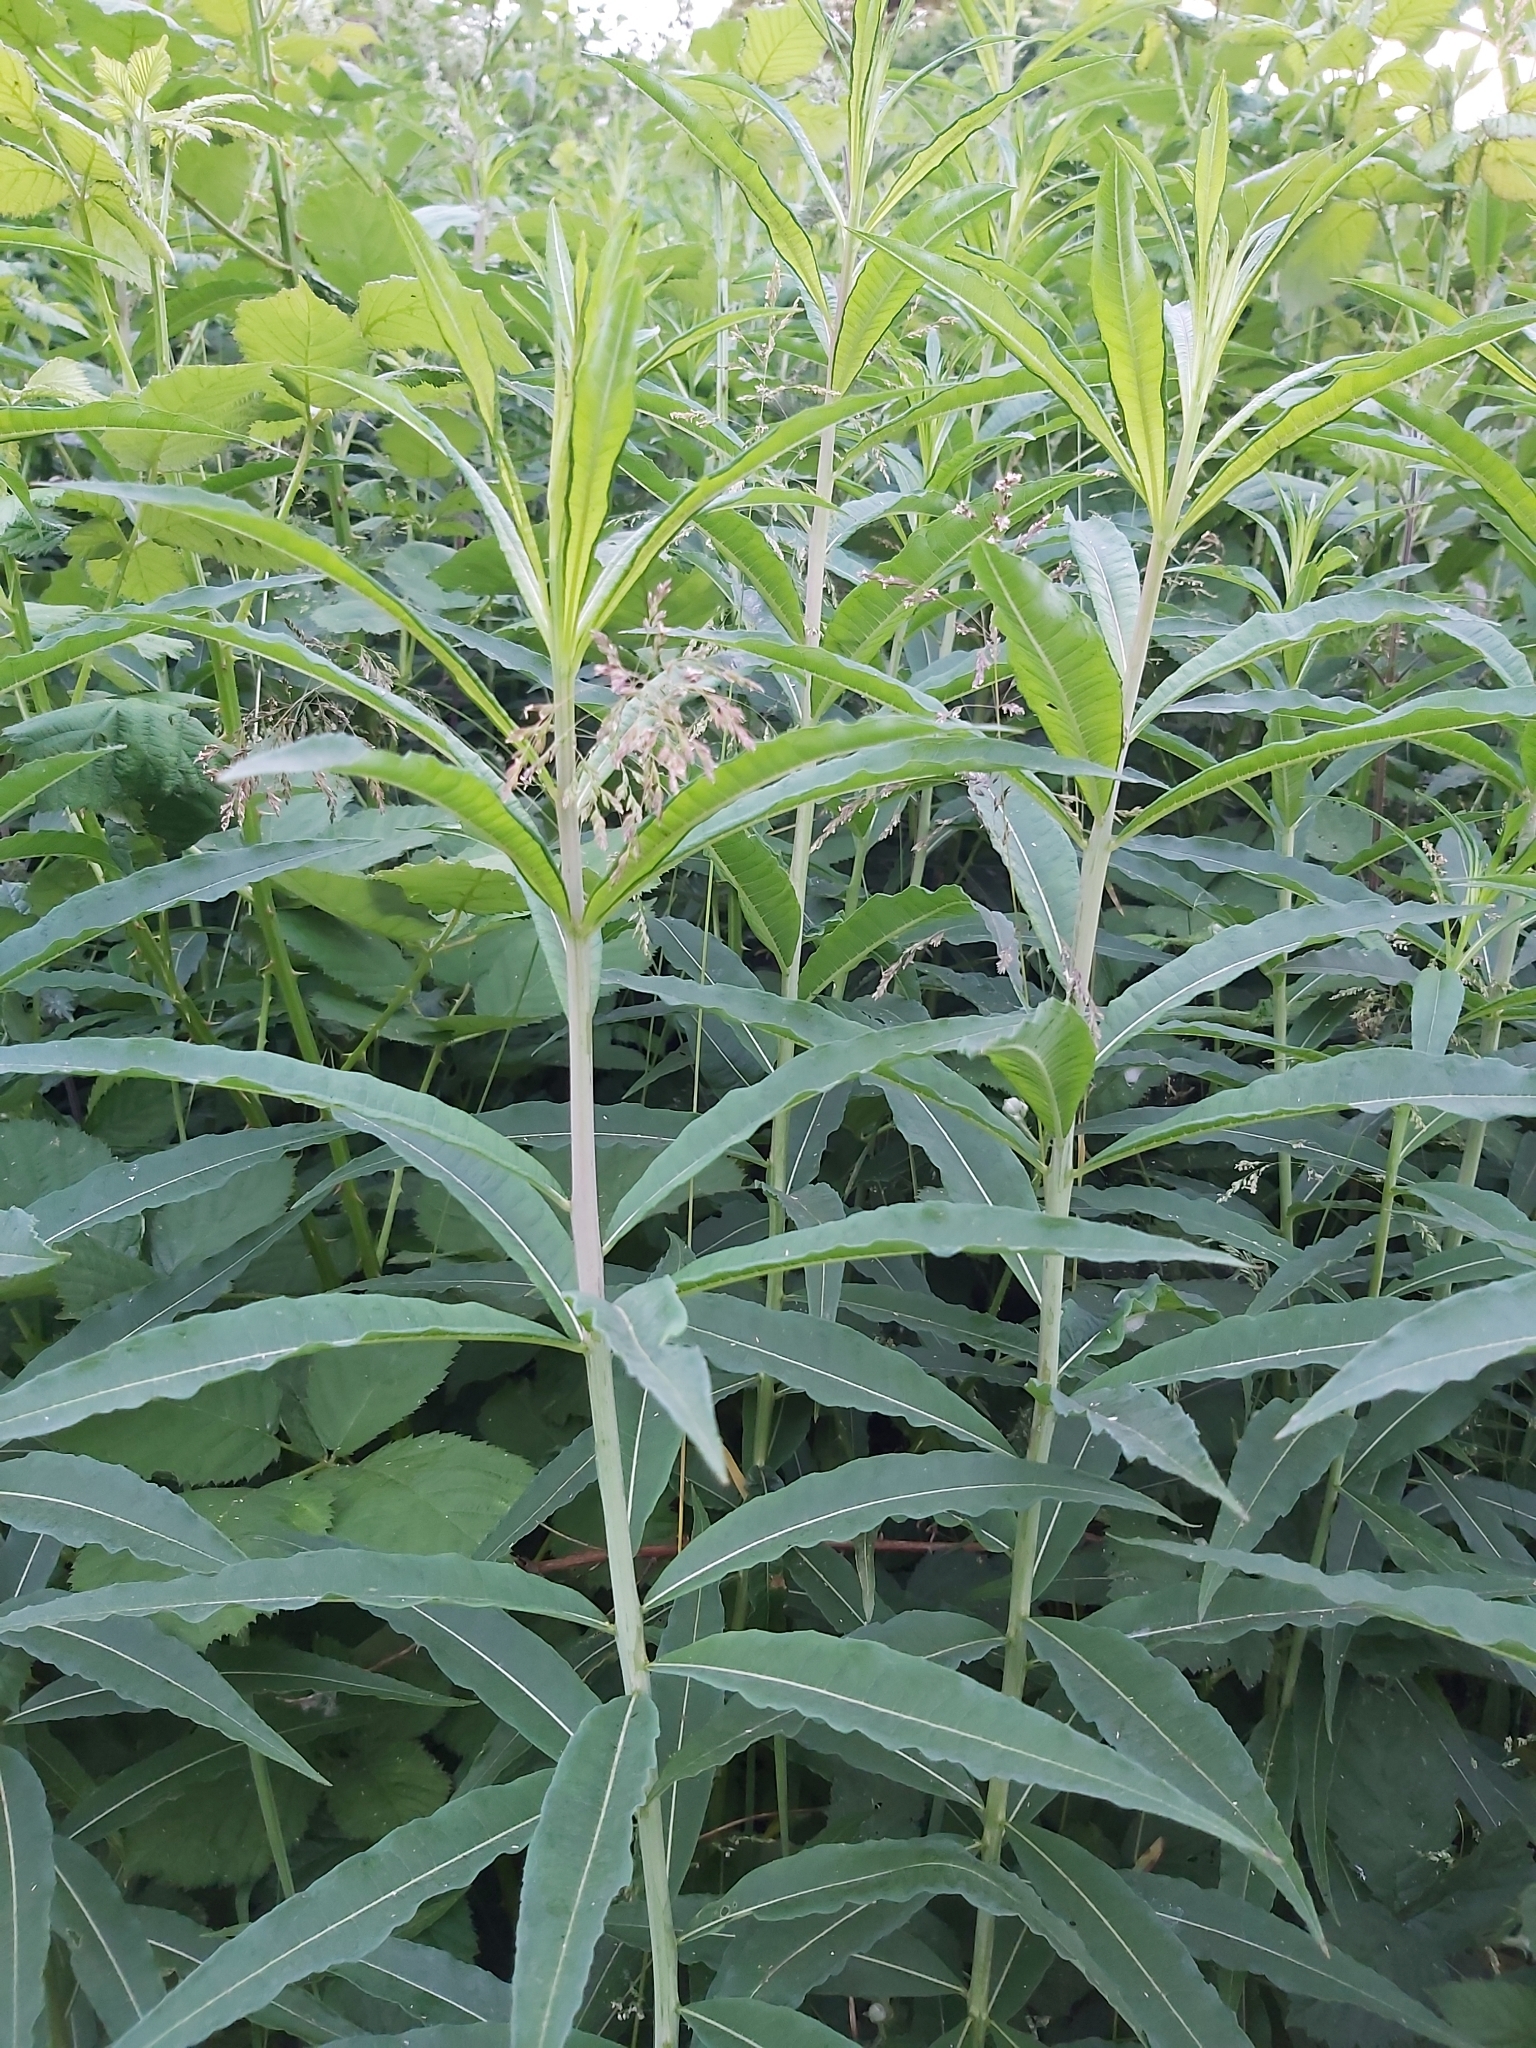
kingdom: Plantae
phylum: Tracheophyta
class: Magnoliopsida
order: Myrtales
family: Onagraceae
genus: Chamaenerion
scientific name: Chamaenerion angustifolium
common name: Fireweed
